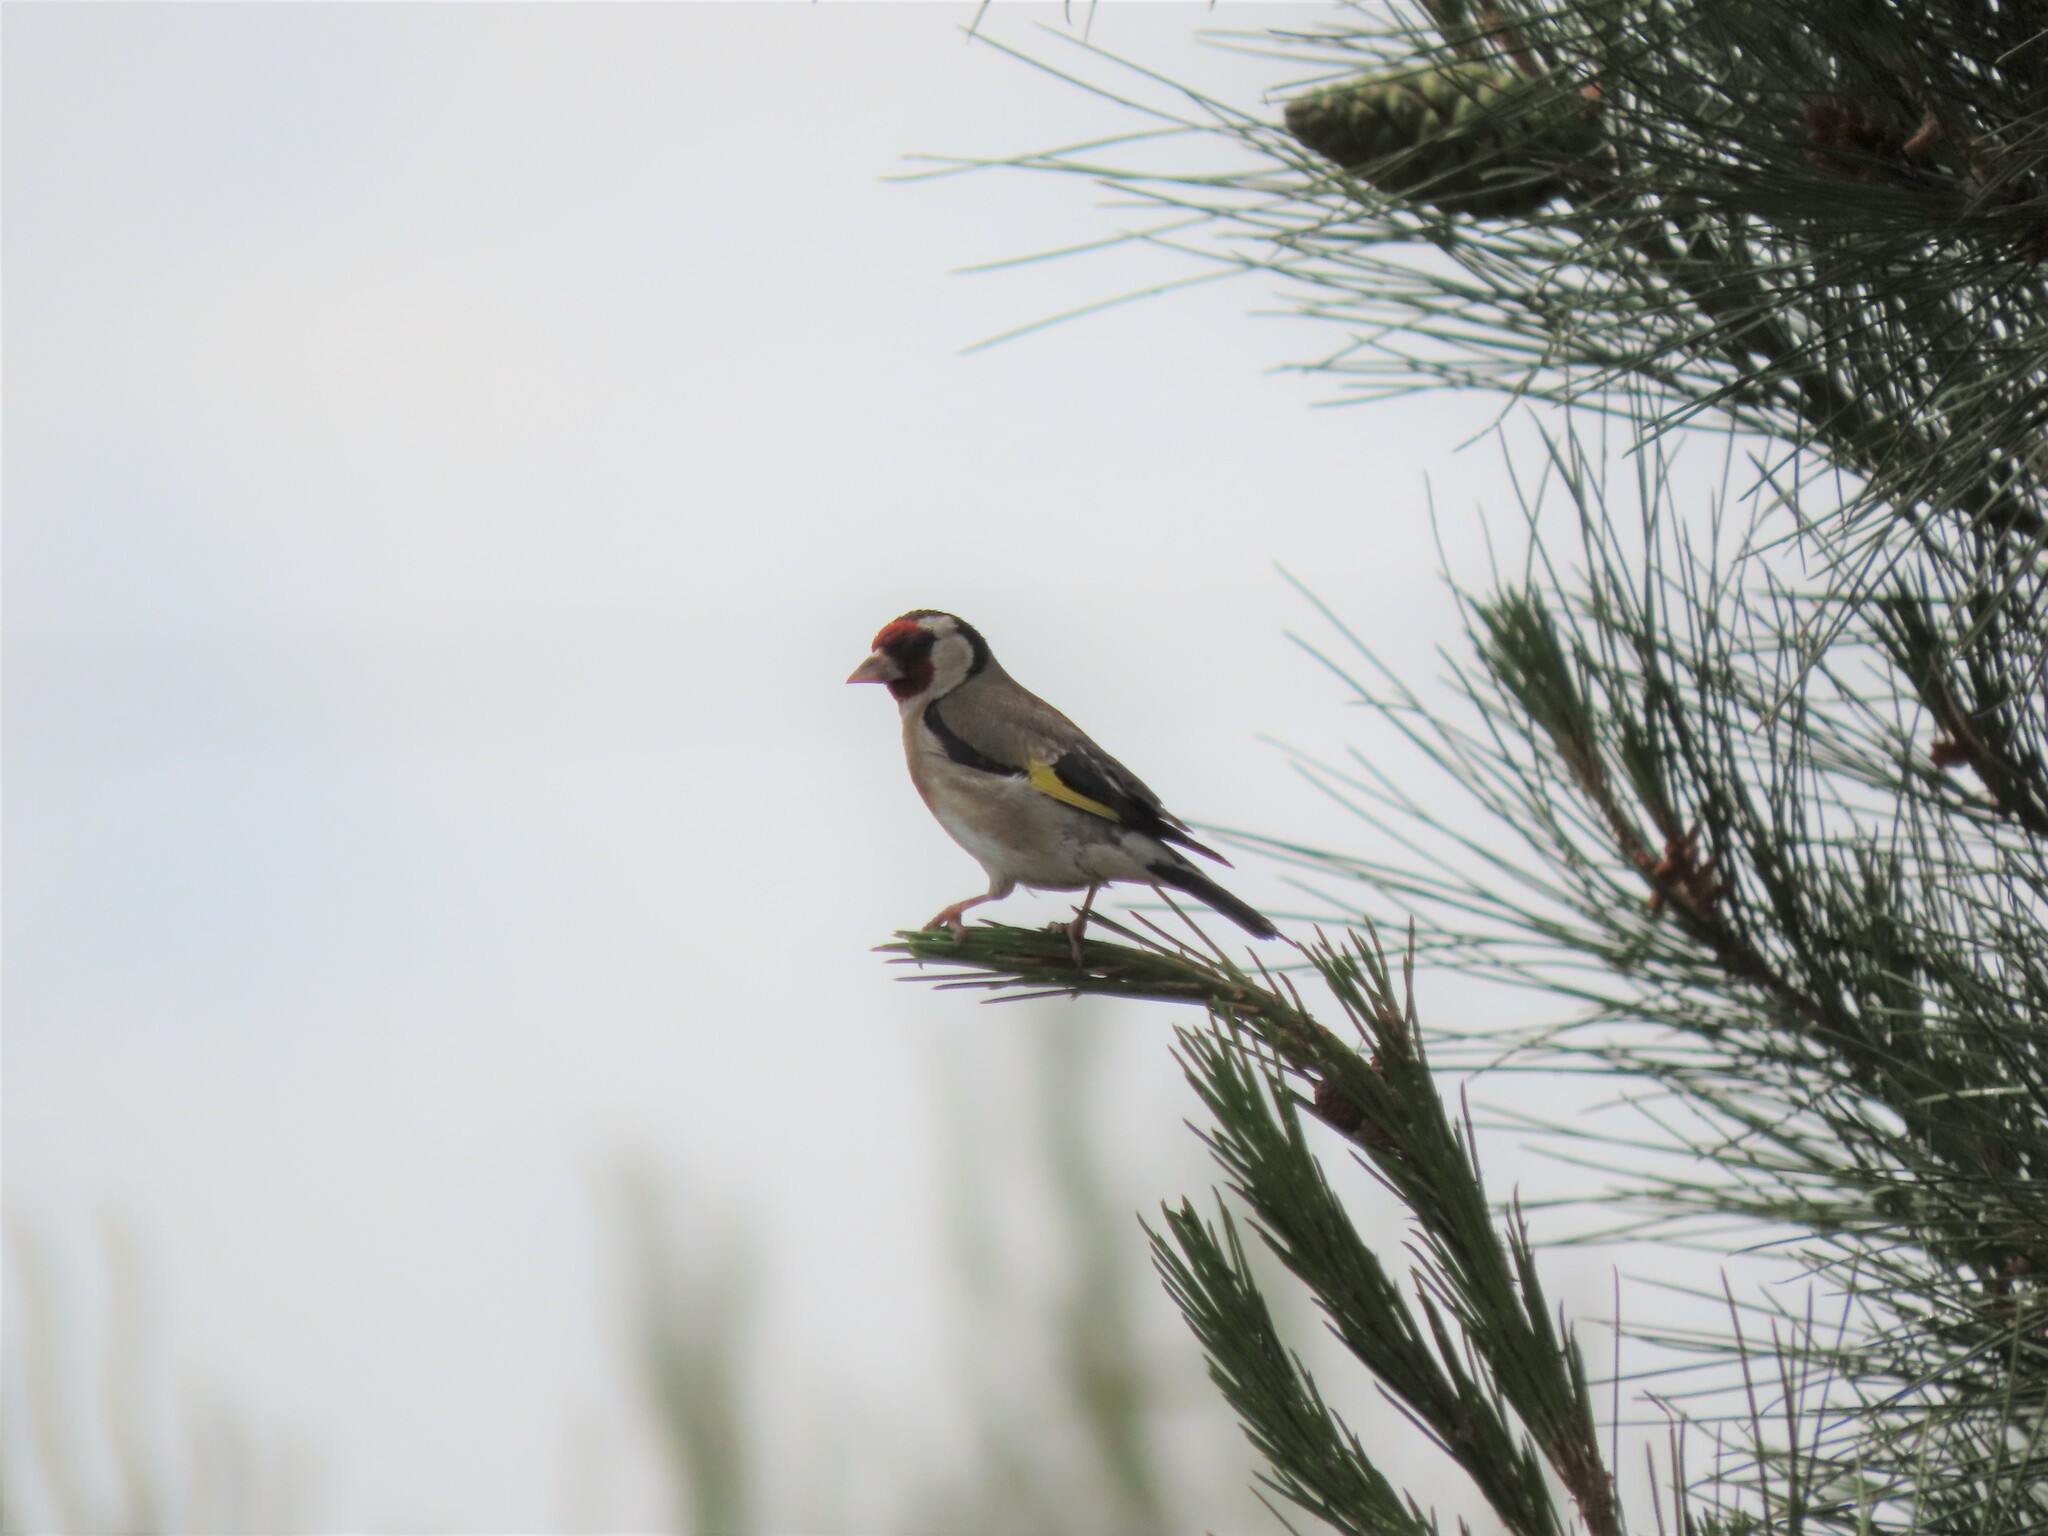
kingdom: Animalia
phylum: Chordata
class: Aves
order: Passeriformes
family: Fringillidae
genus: Carduelis
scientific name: Carduelis carduelis
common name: European goldfinch
